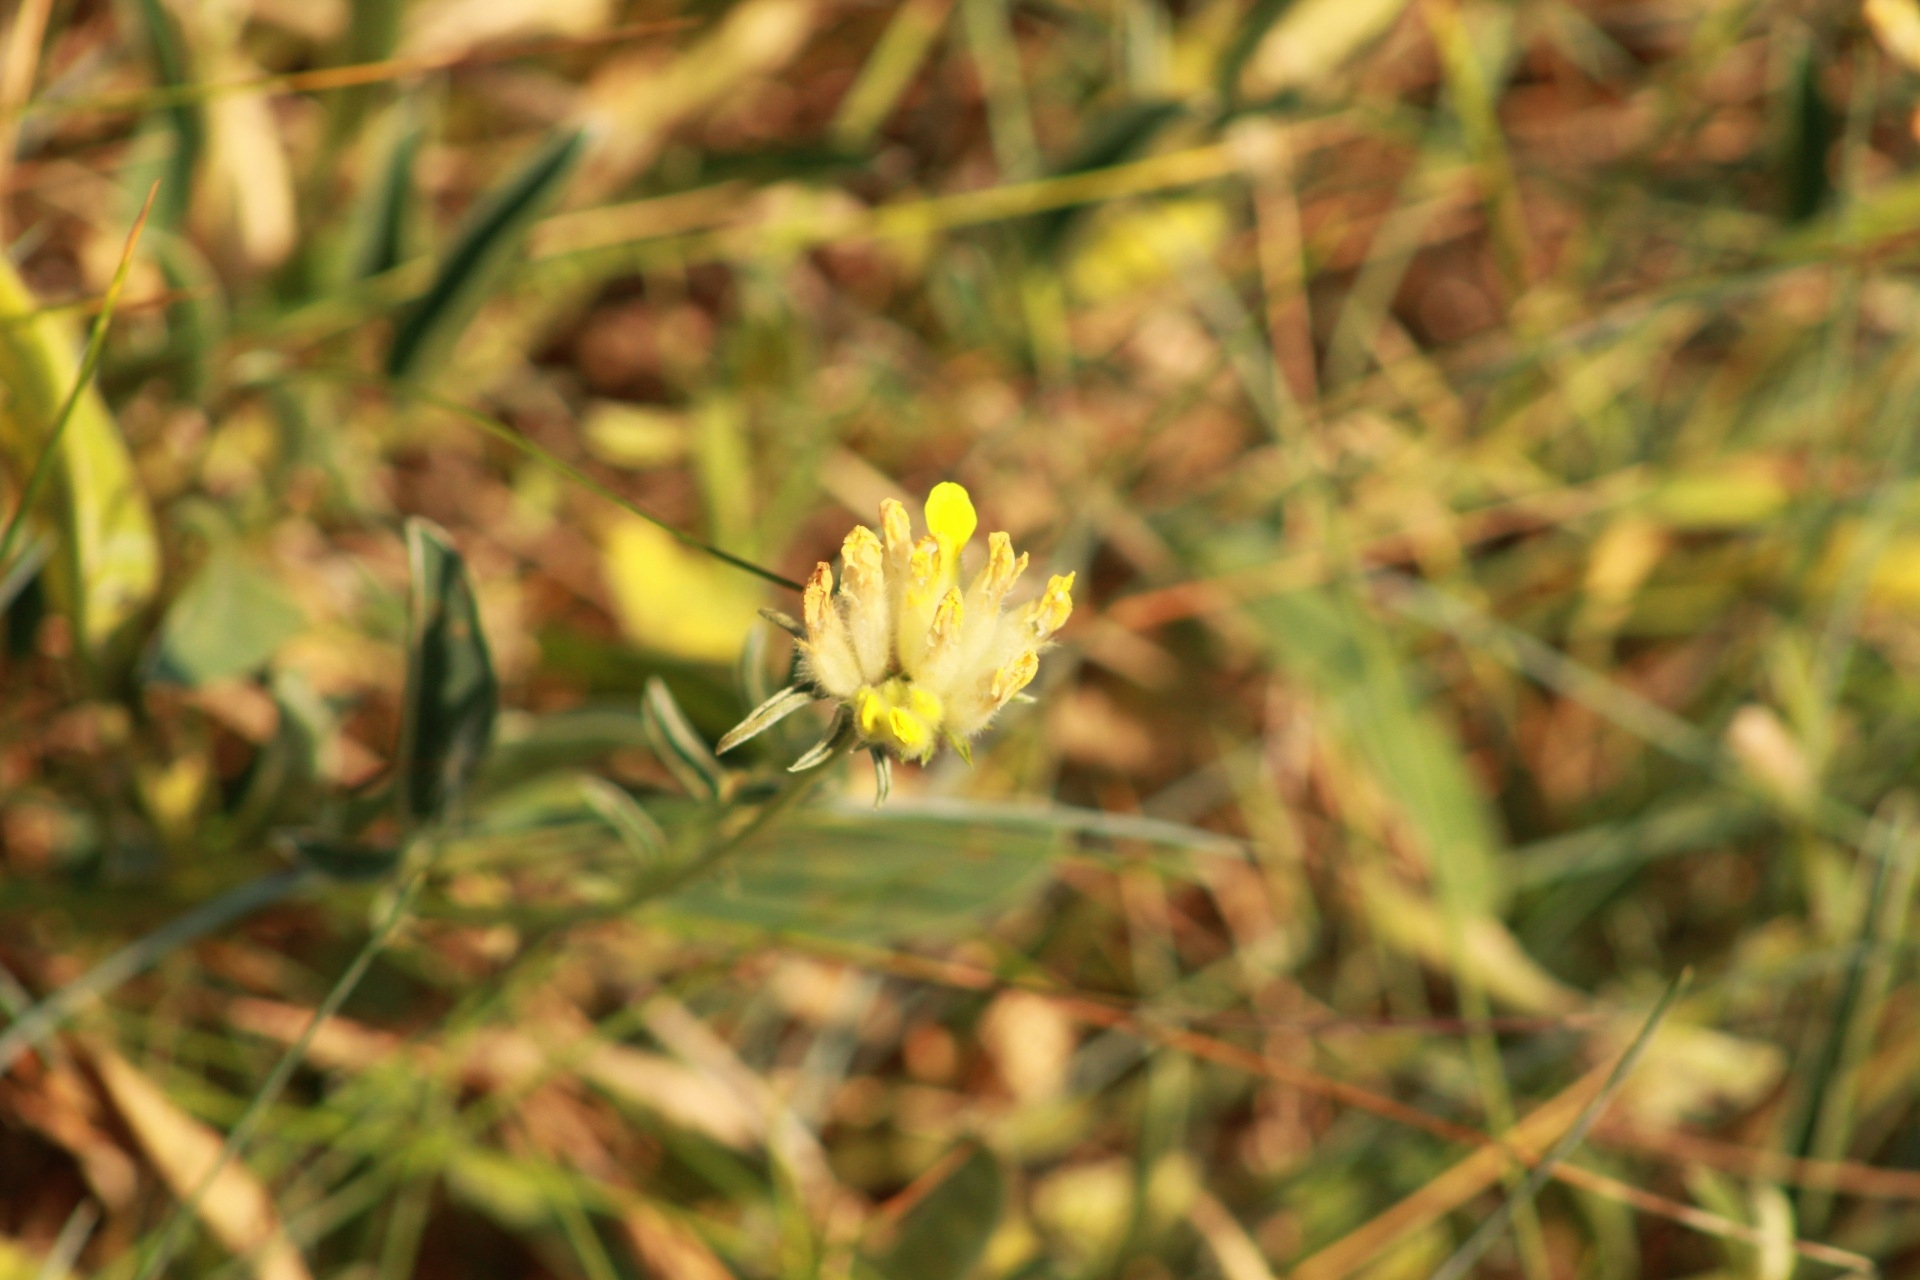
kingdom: Plantae
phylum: Tracheophyta
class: Magnoliopsida
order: Fabales
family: Fabaceae
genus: Anthyllis
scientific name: Anthyllis vulneraria
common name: Kidney vetch
